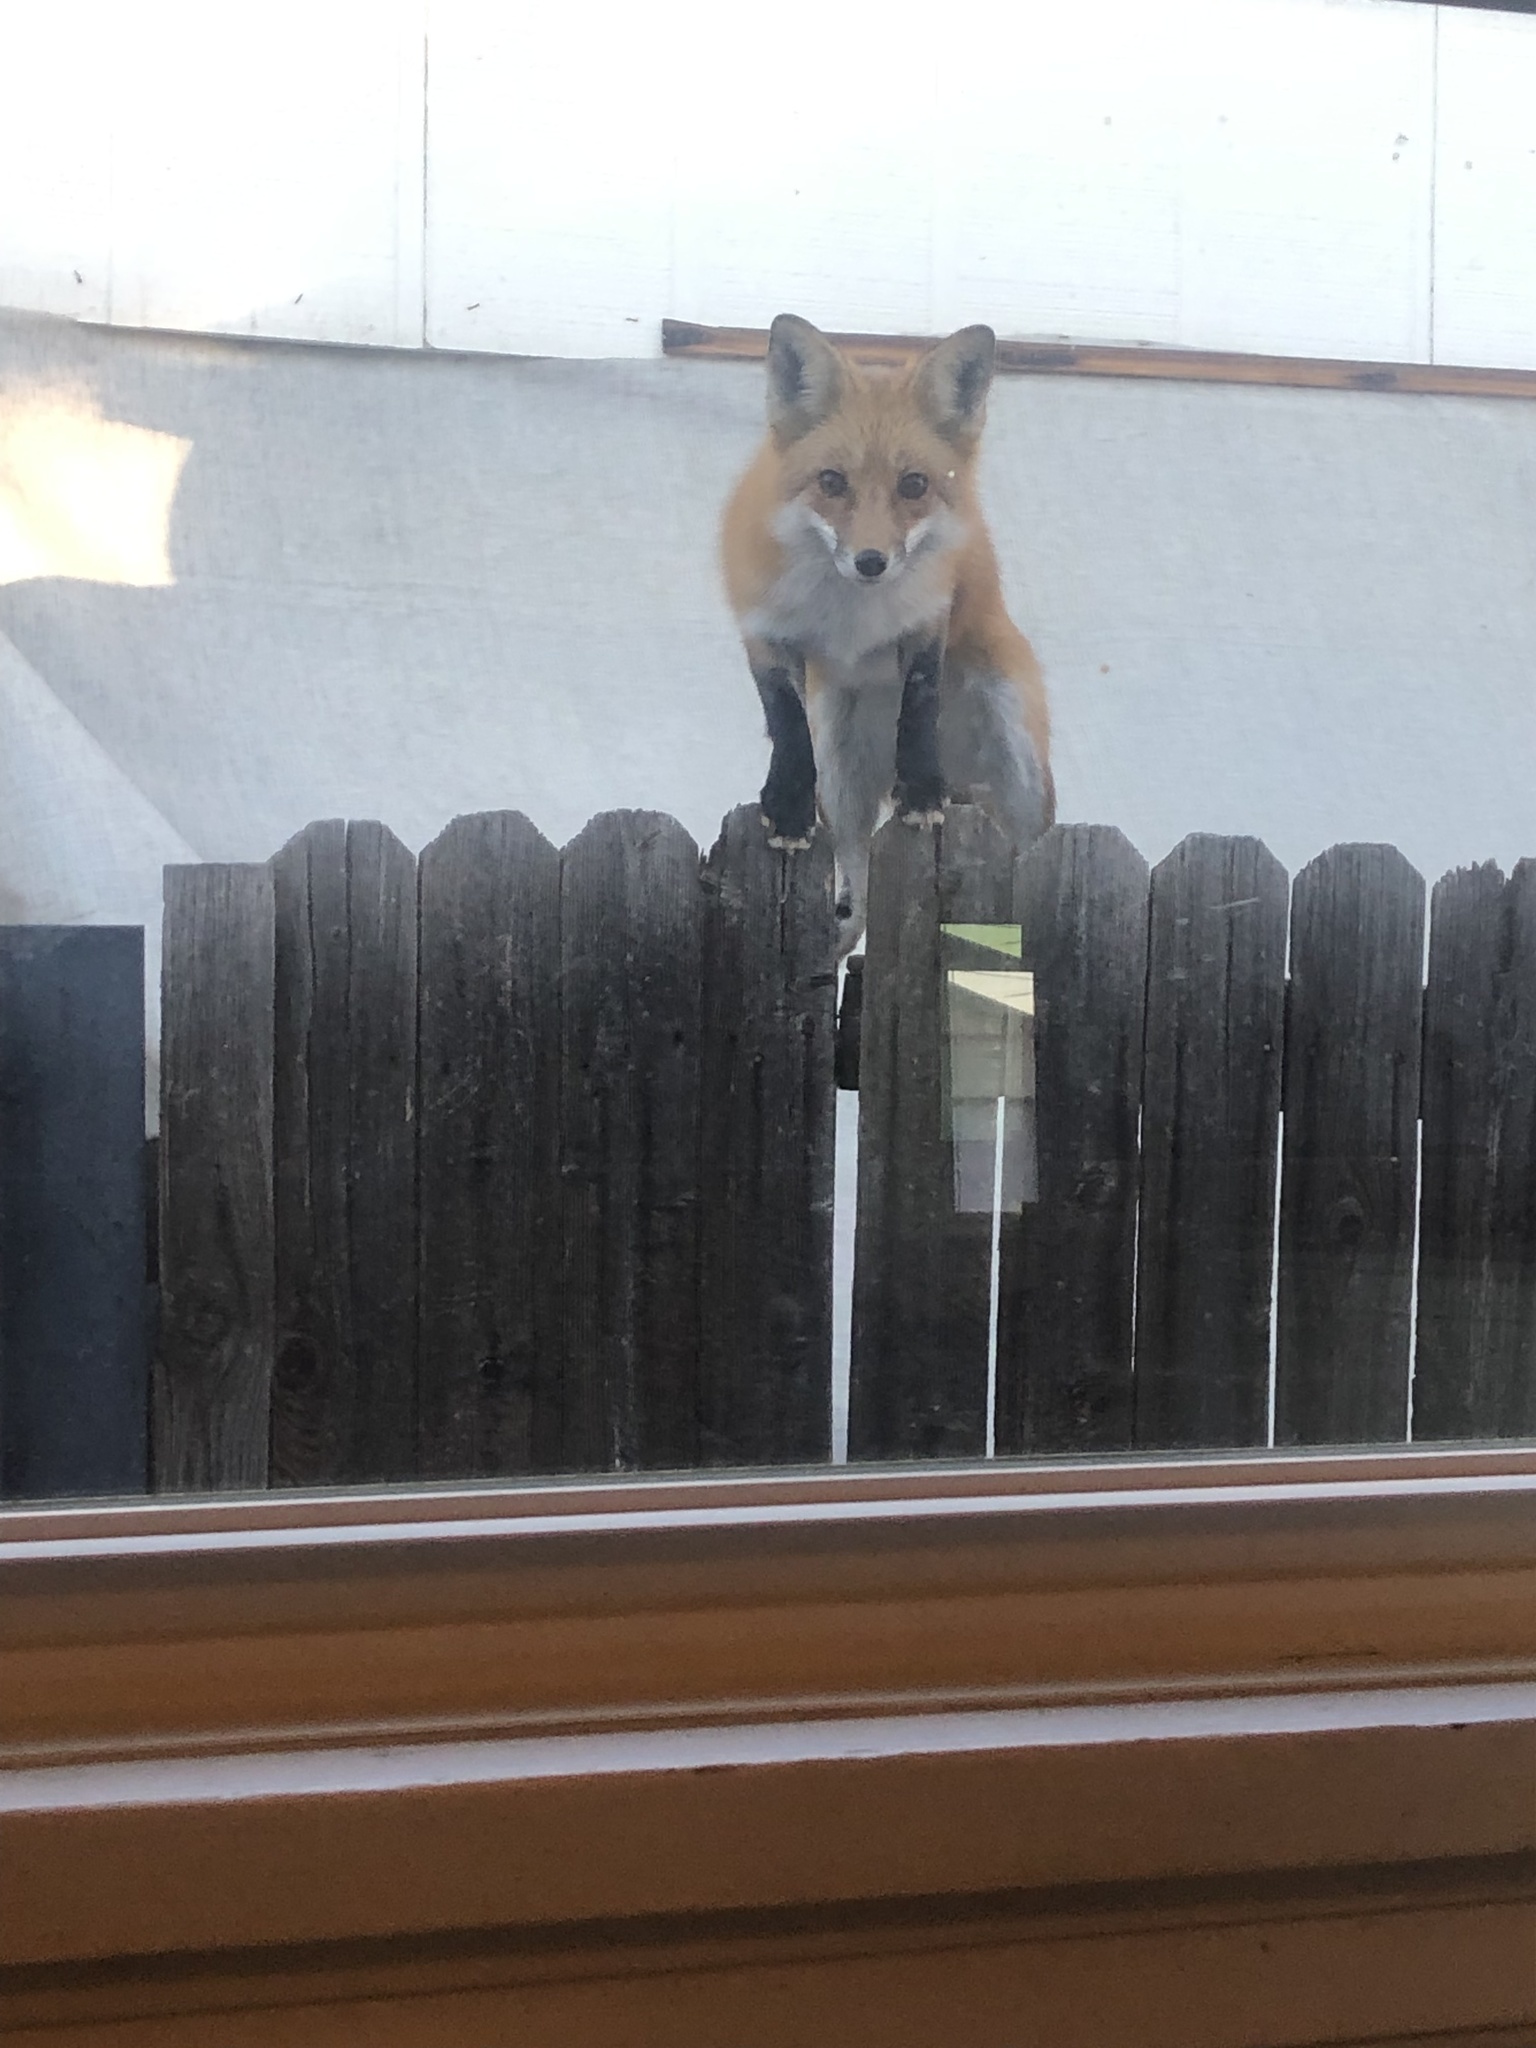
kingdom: Animalia
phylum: Chordata
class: Mammalia
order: Carnivora
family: Canidae
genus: Vulpes
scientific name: Vulpes vulpes
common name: Red fox
